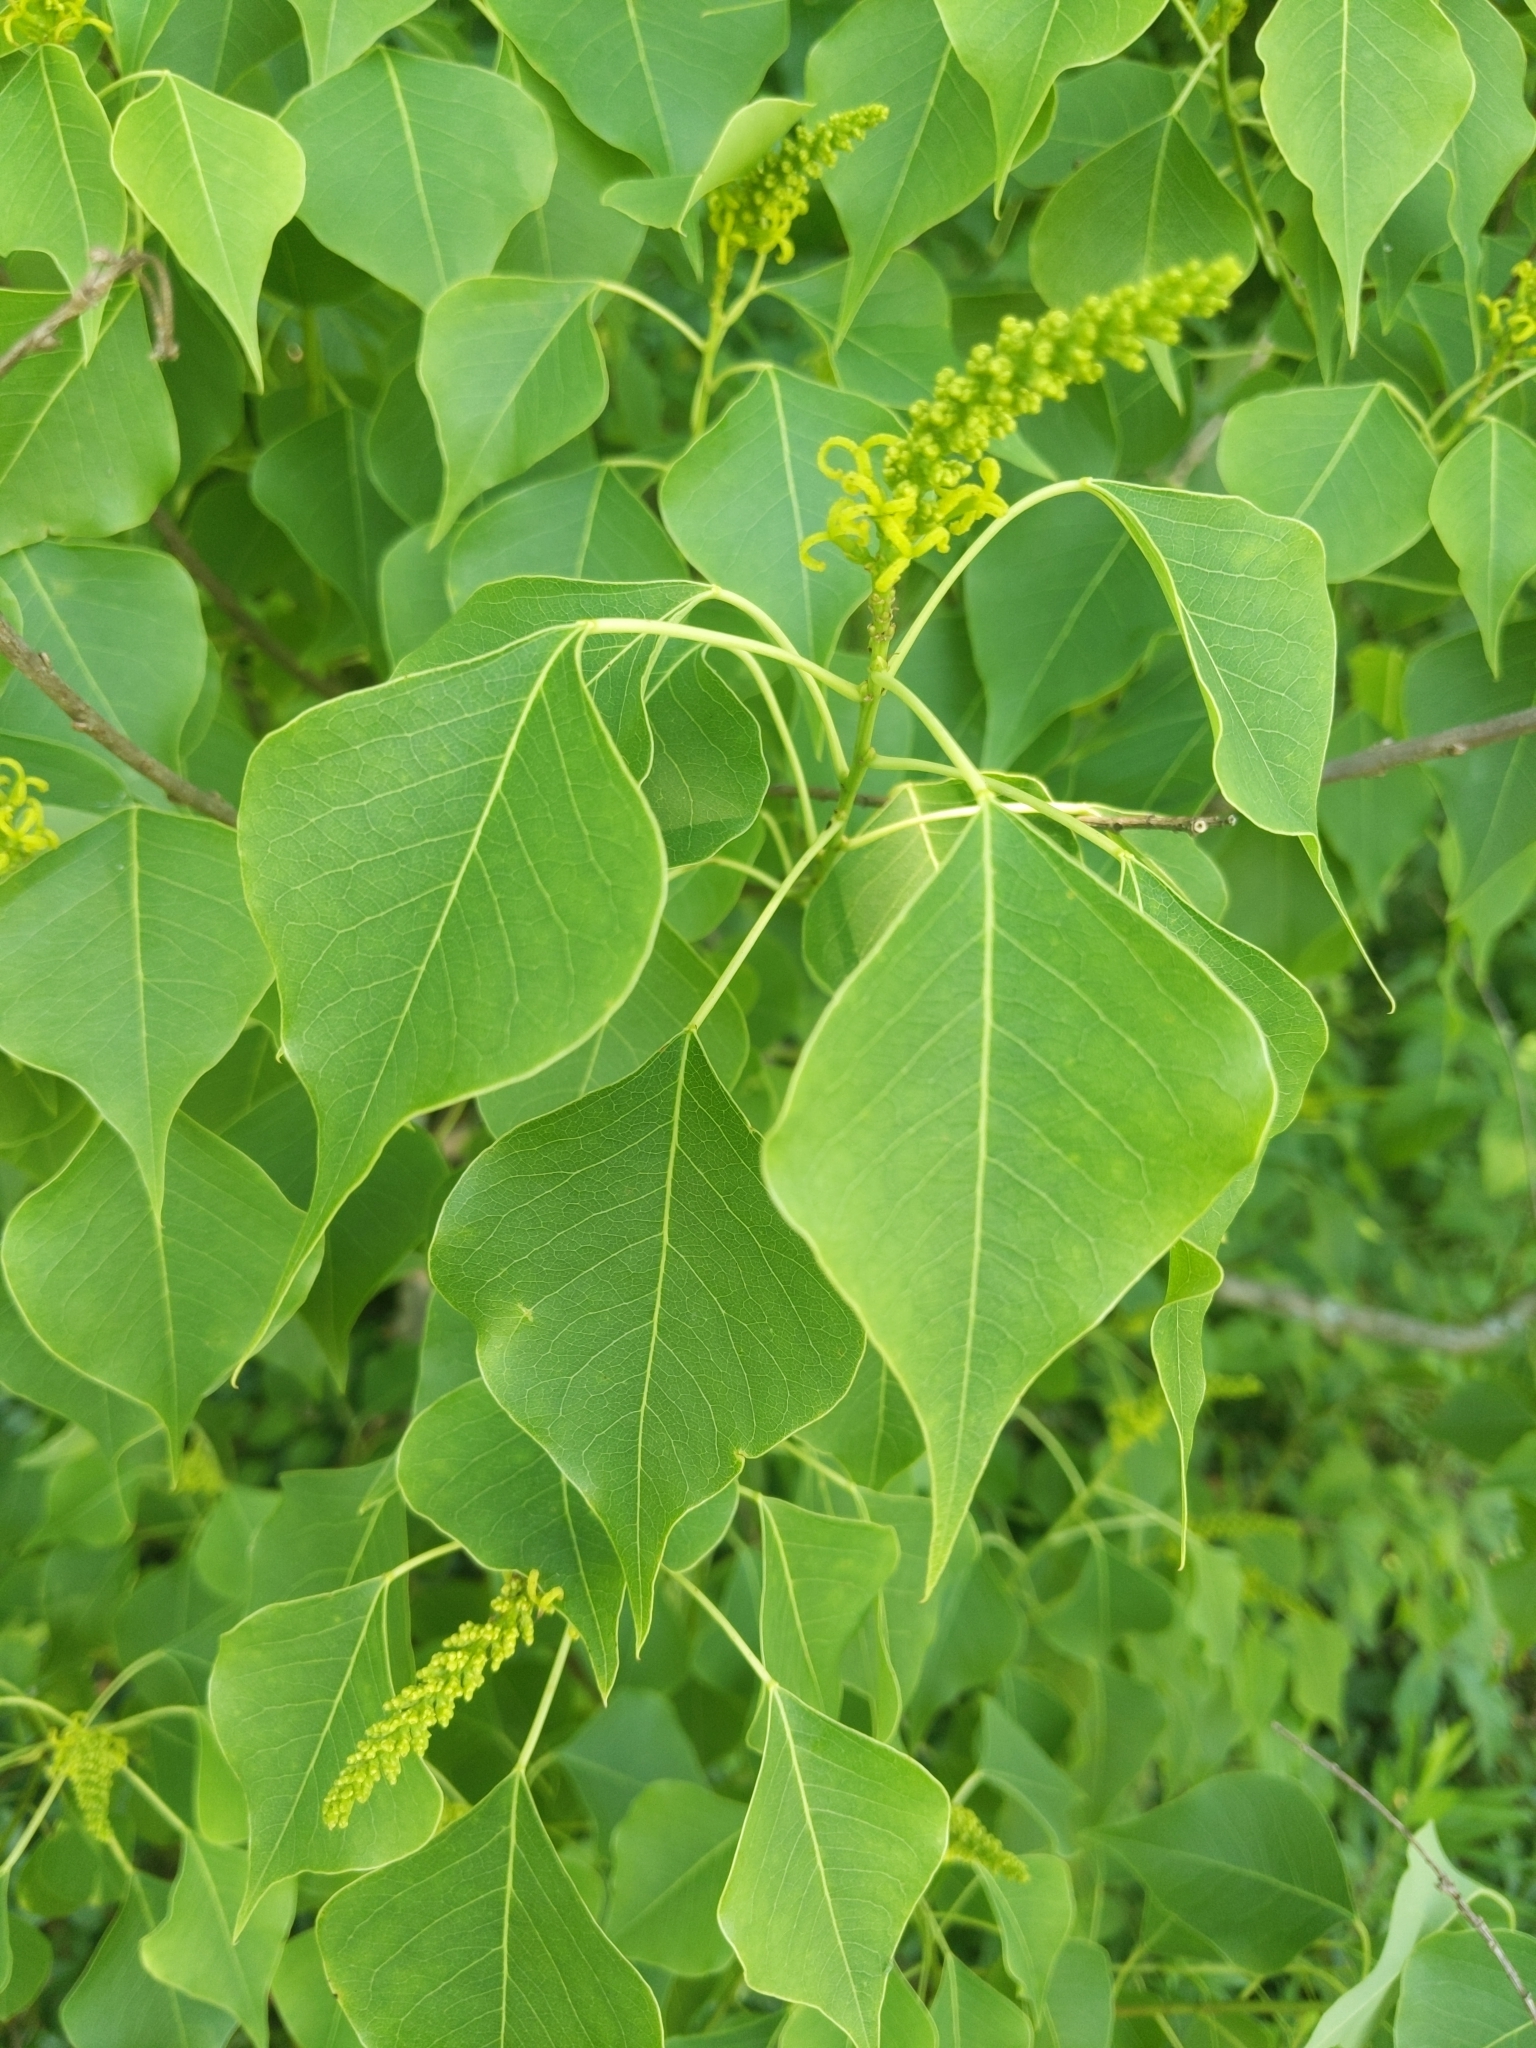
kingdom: Plantae
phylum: Tracheophyta
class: Magnoliopsida
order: Malpighiales
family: Euphorbiaceae
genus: Triadica
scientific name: Triadica sebifera
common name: Chinese tallow
